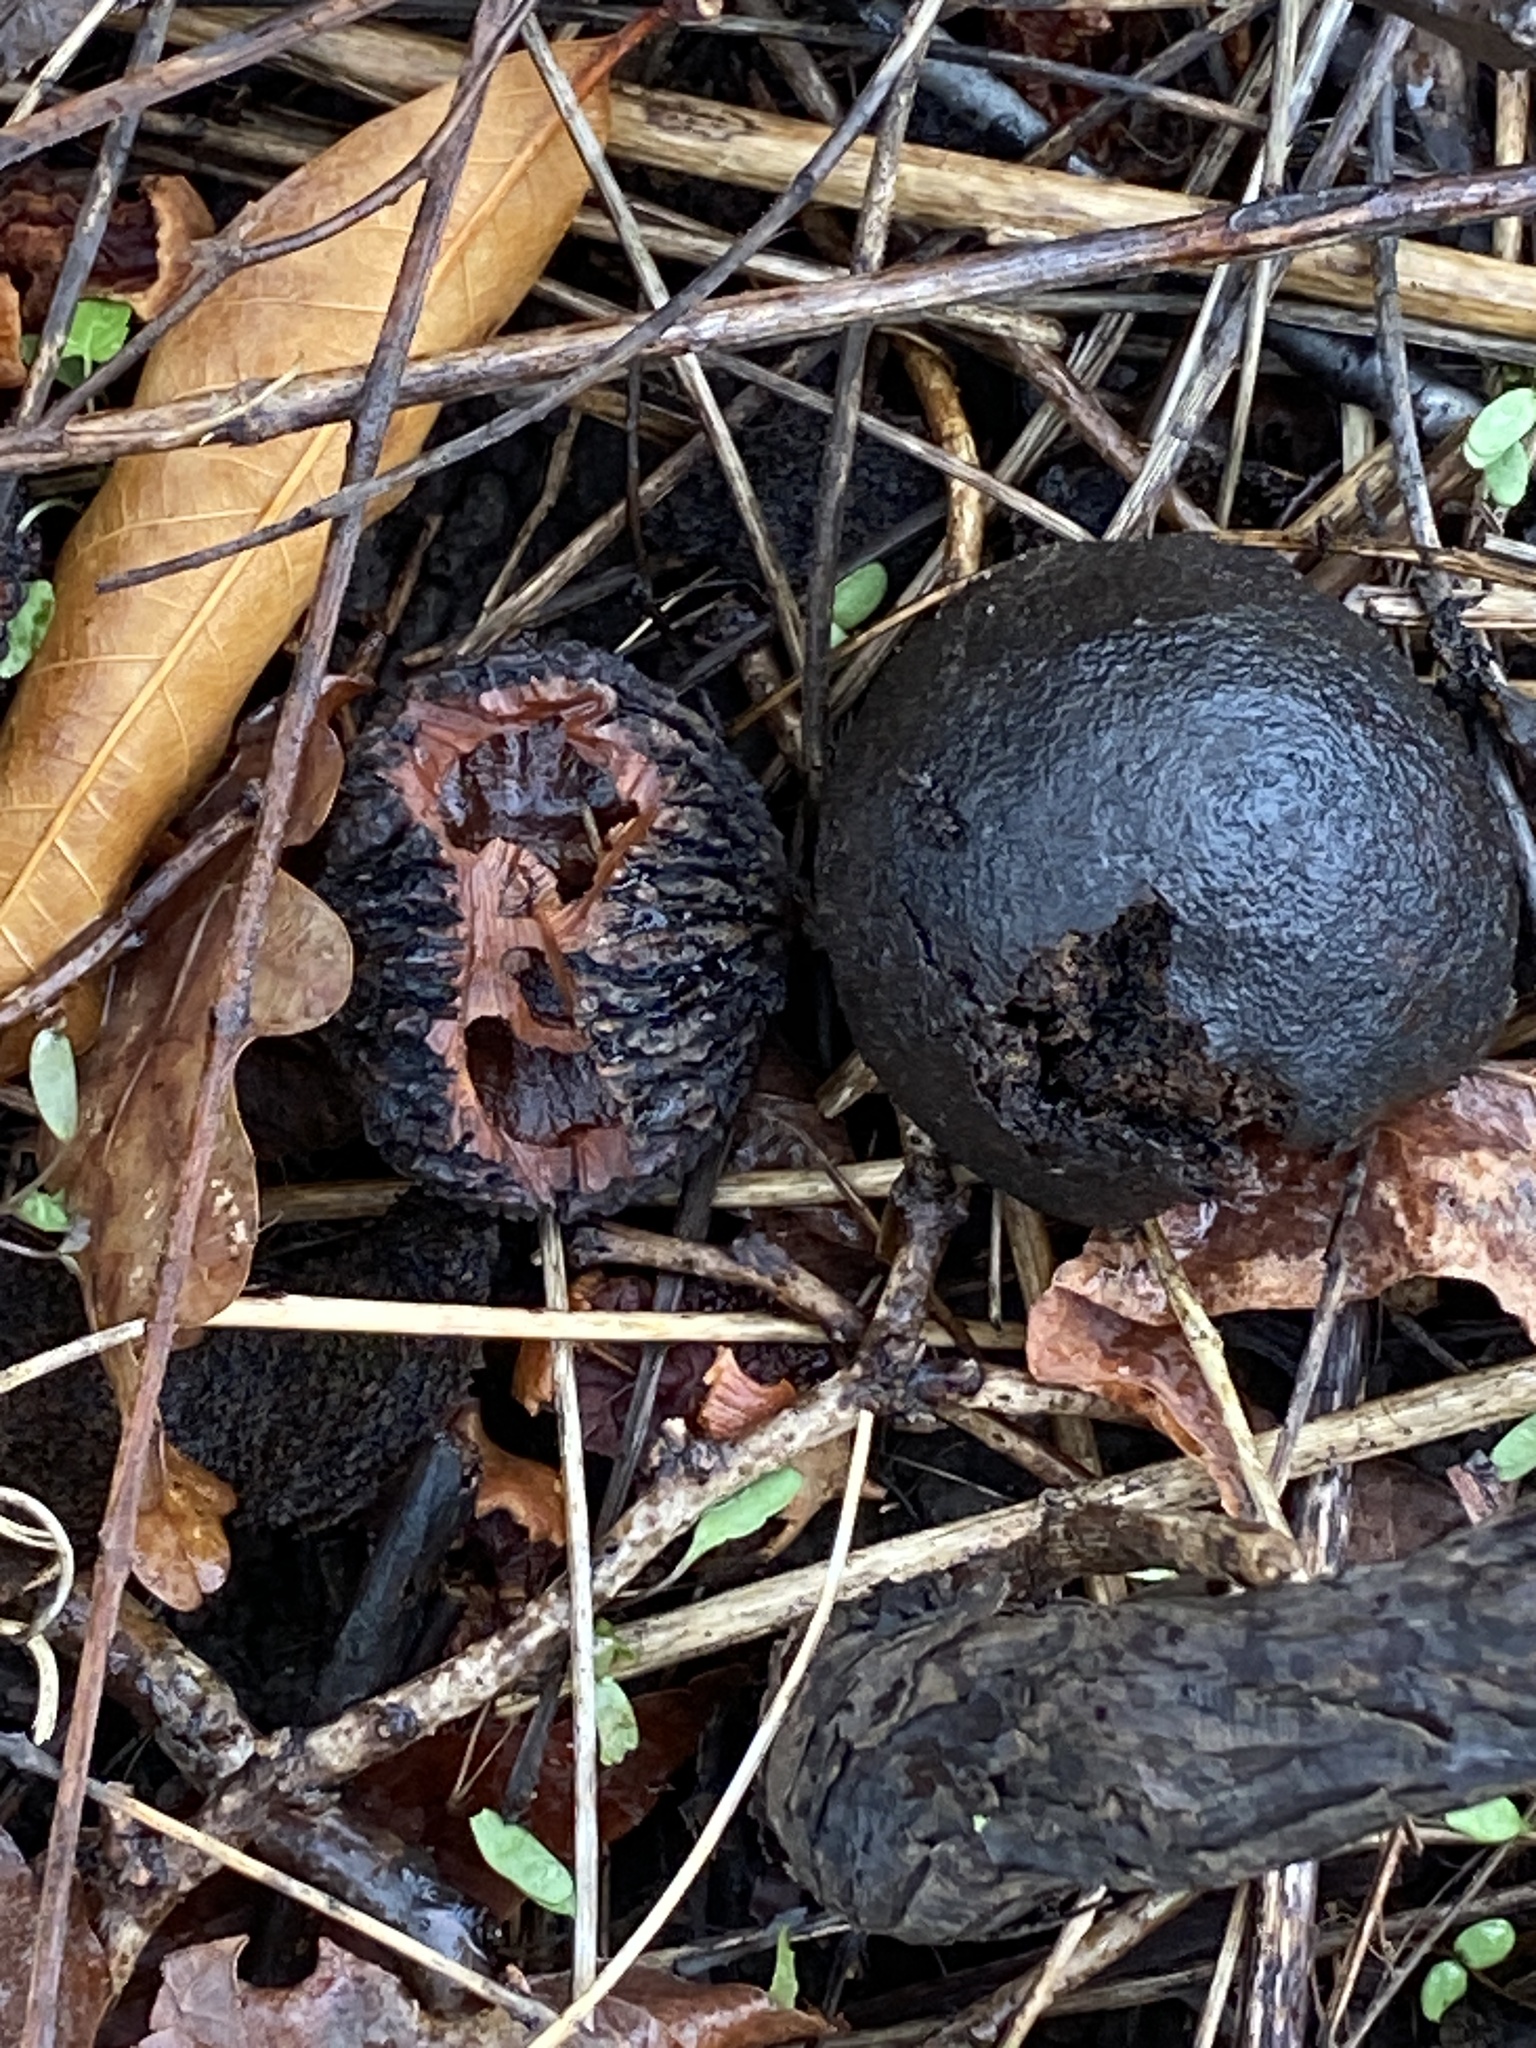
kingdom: Plantae
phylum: Tracheophyta
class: Magnoliopsida
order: Fagales
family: Juglandaceae
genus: Juglans
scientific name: Juglans nigra
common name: Black walnut
